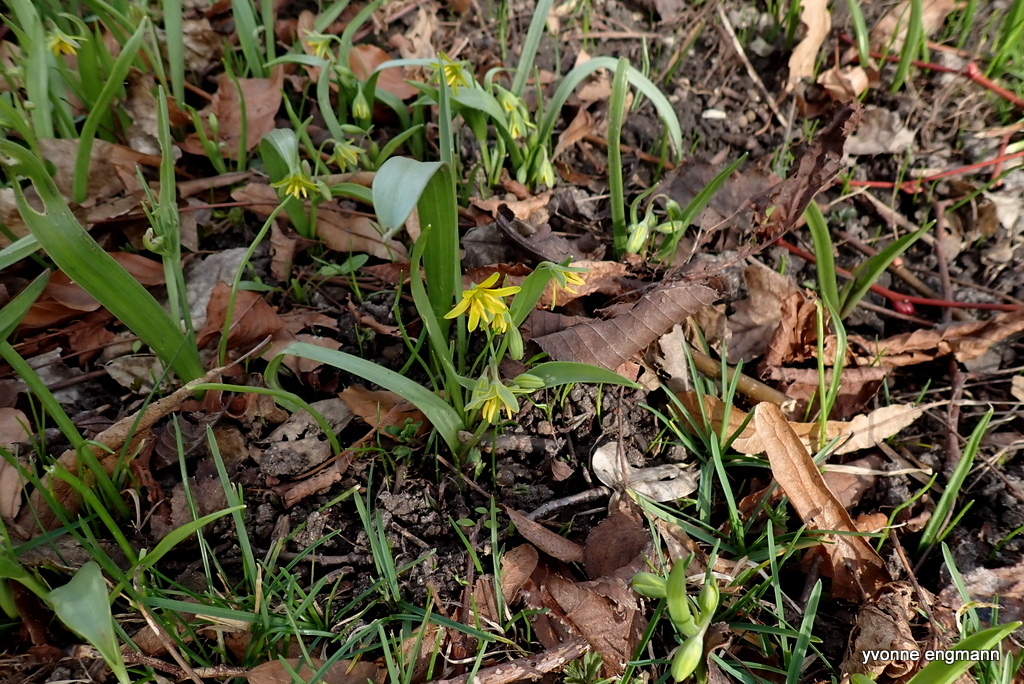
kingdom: Plantae
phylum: Tracheophyta
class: Liliopsida
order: Liliales
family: Liliaceae
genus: Gagea
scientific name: Gagea lutea
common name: Yellow star-of-bethlehem
